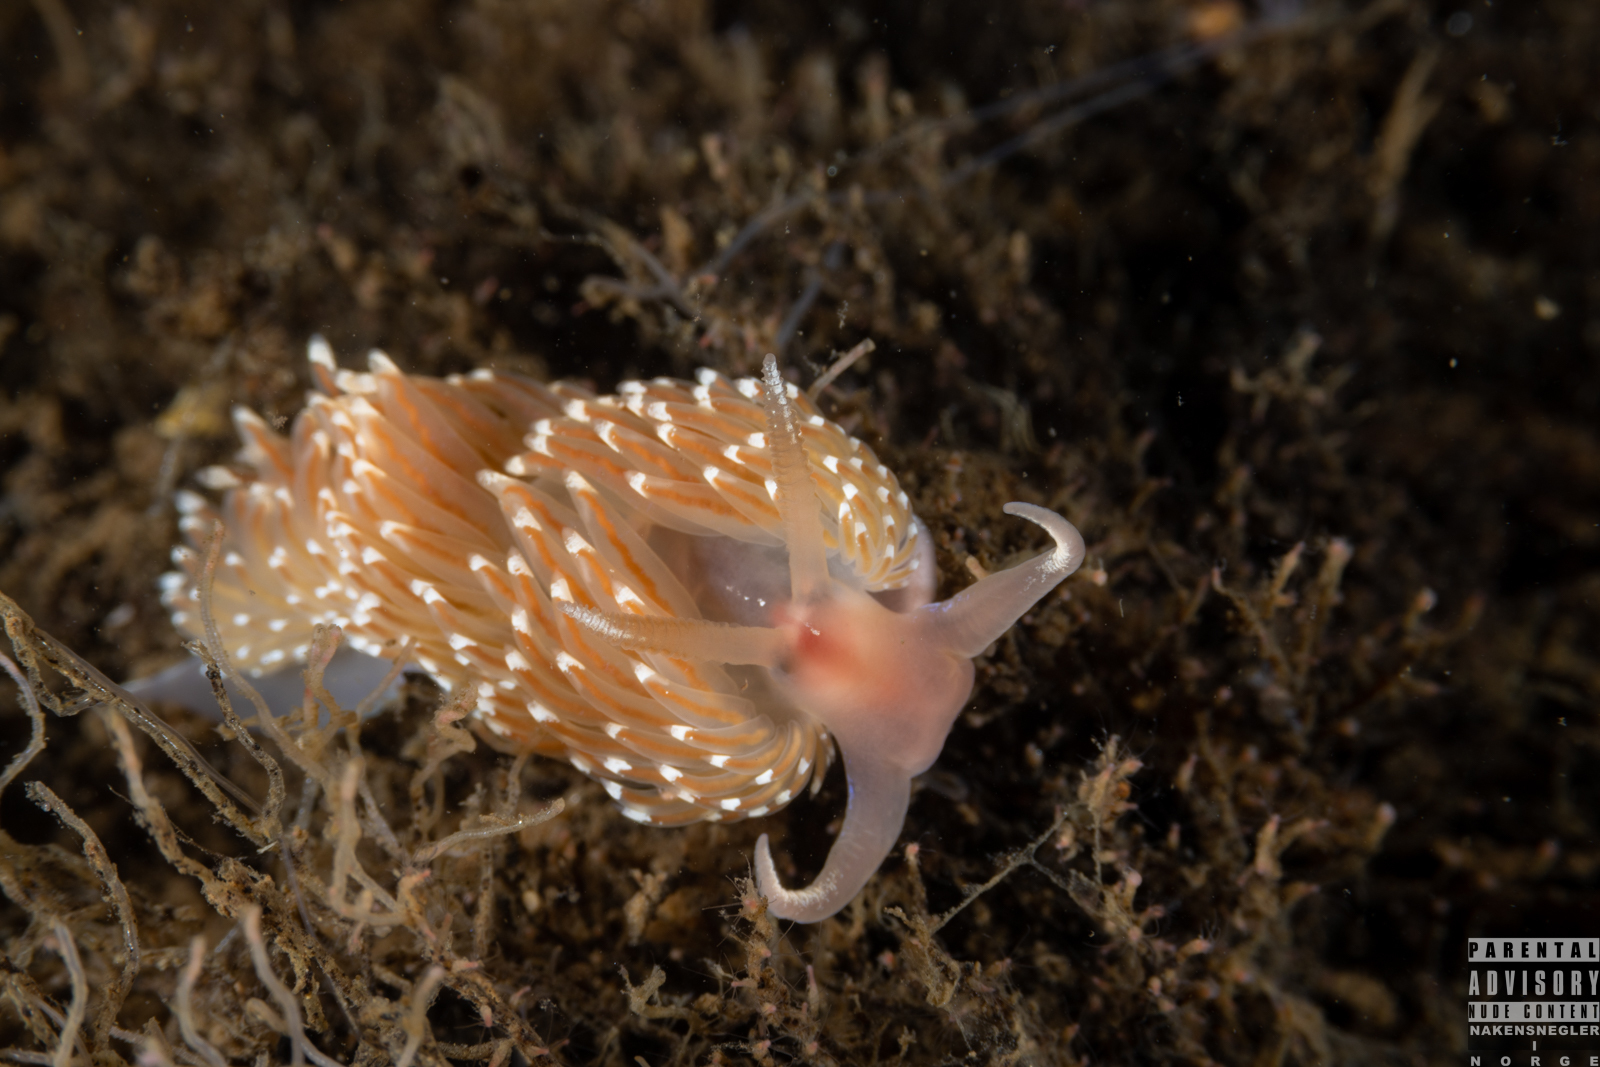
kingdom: Animalia
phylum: Mollusca
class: Gastropoda
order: Nudibranchia
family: Facelinidae
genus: Facelina
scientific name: Facelina bostoniensis
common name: Boston facelina
